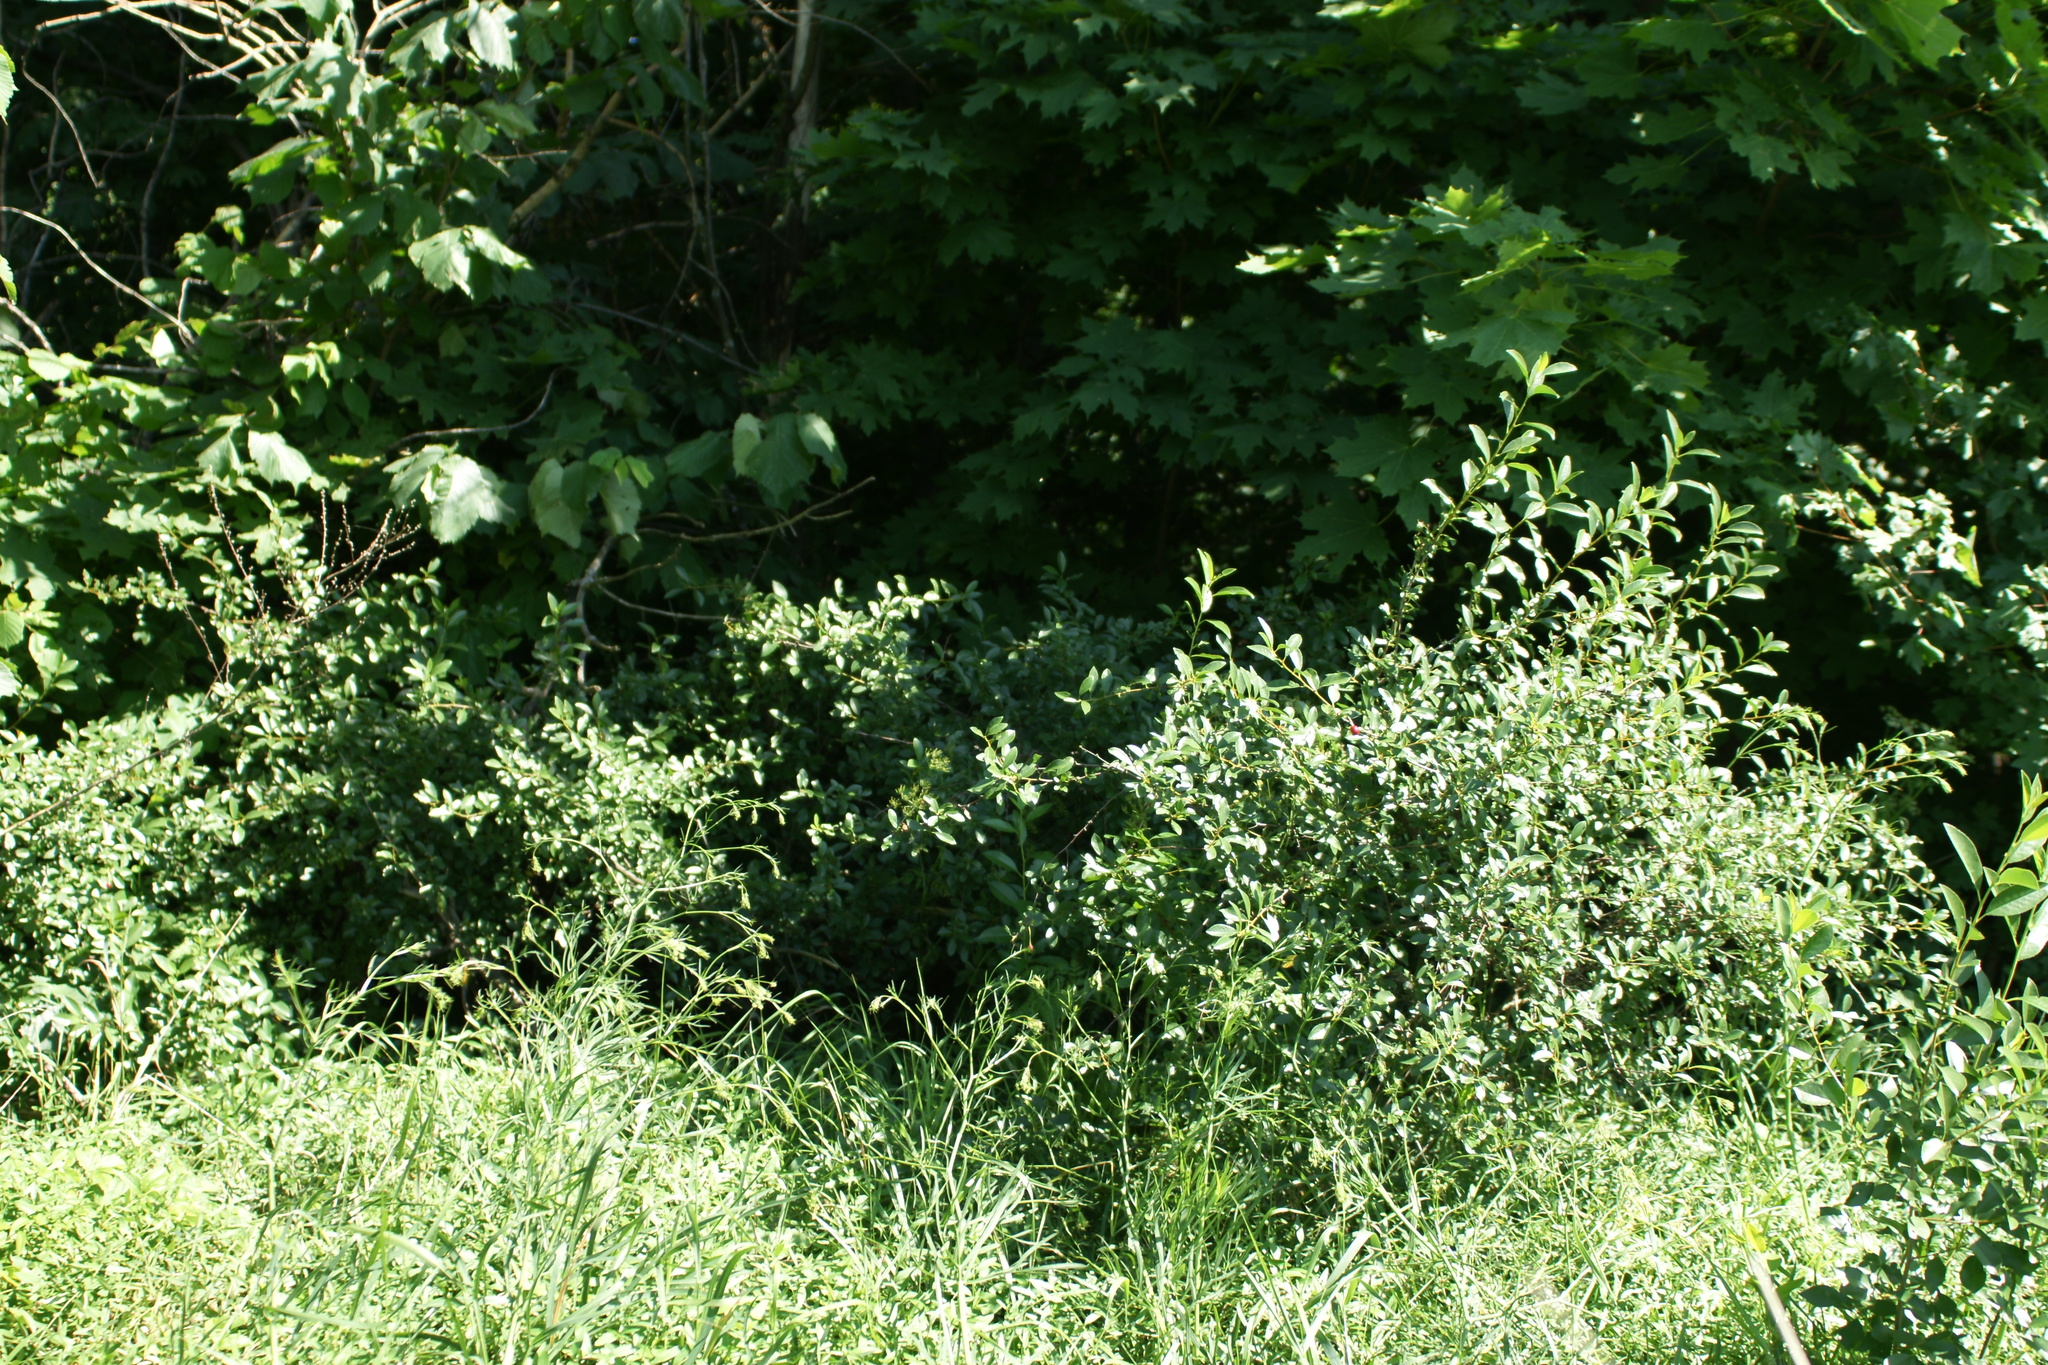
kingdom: Plantae
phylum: Tracheophyta
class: Magnoliopsida
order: Rosales
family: Rosaceae
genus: Prunus
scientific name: Prunus fruticosa
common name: European dwarf cherry
